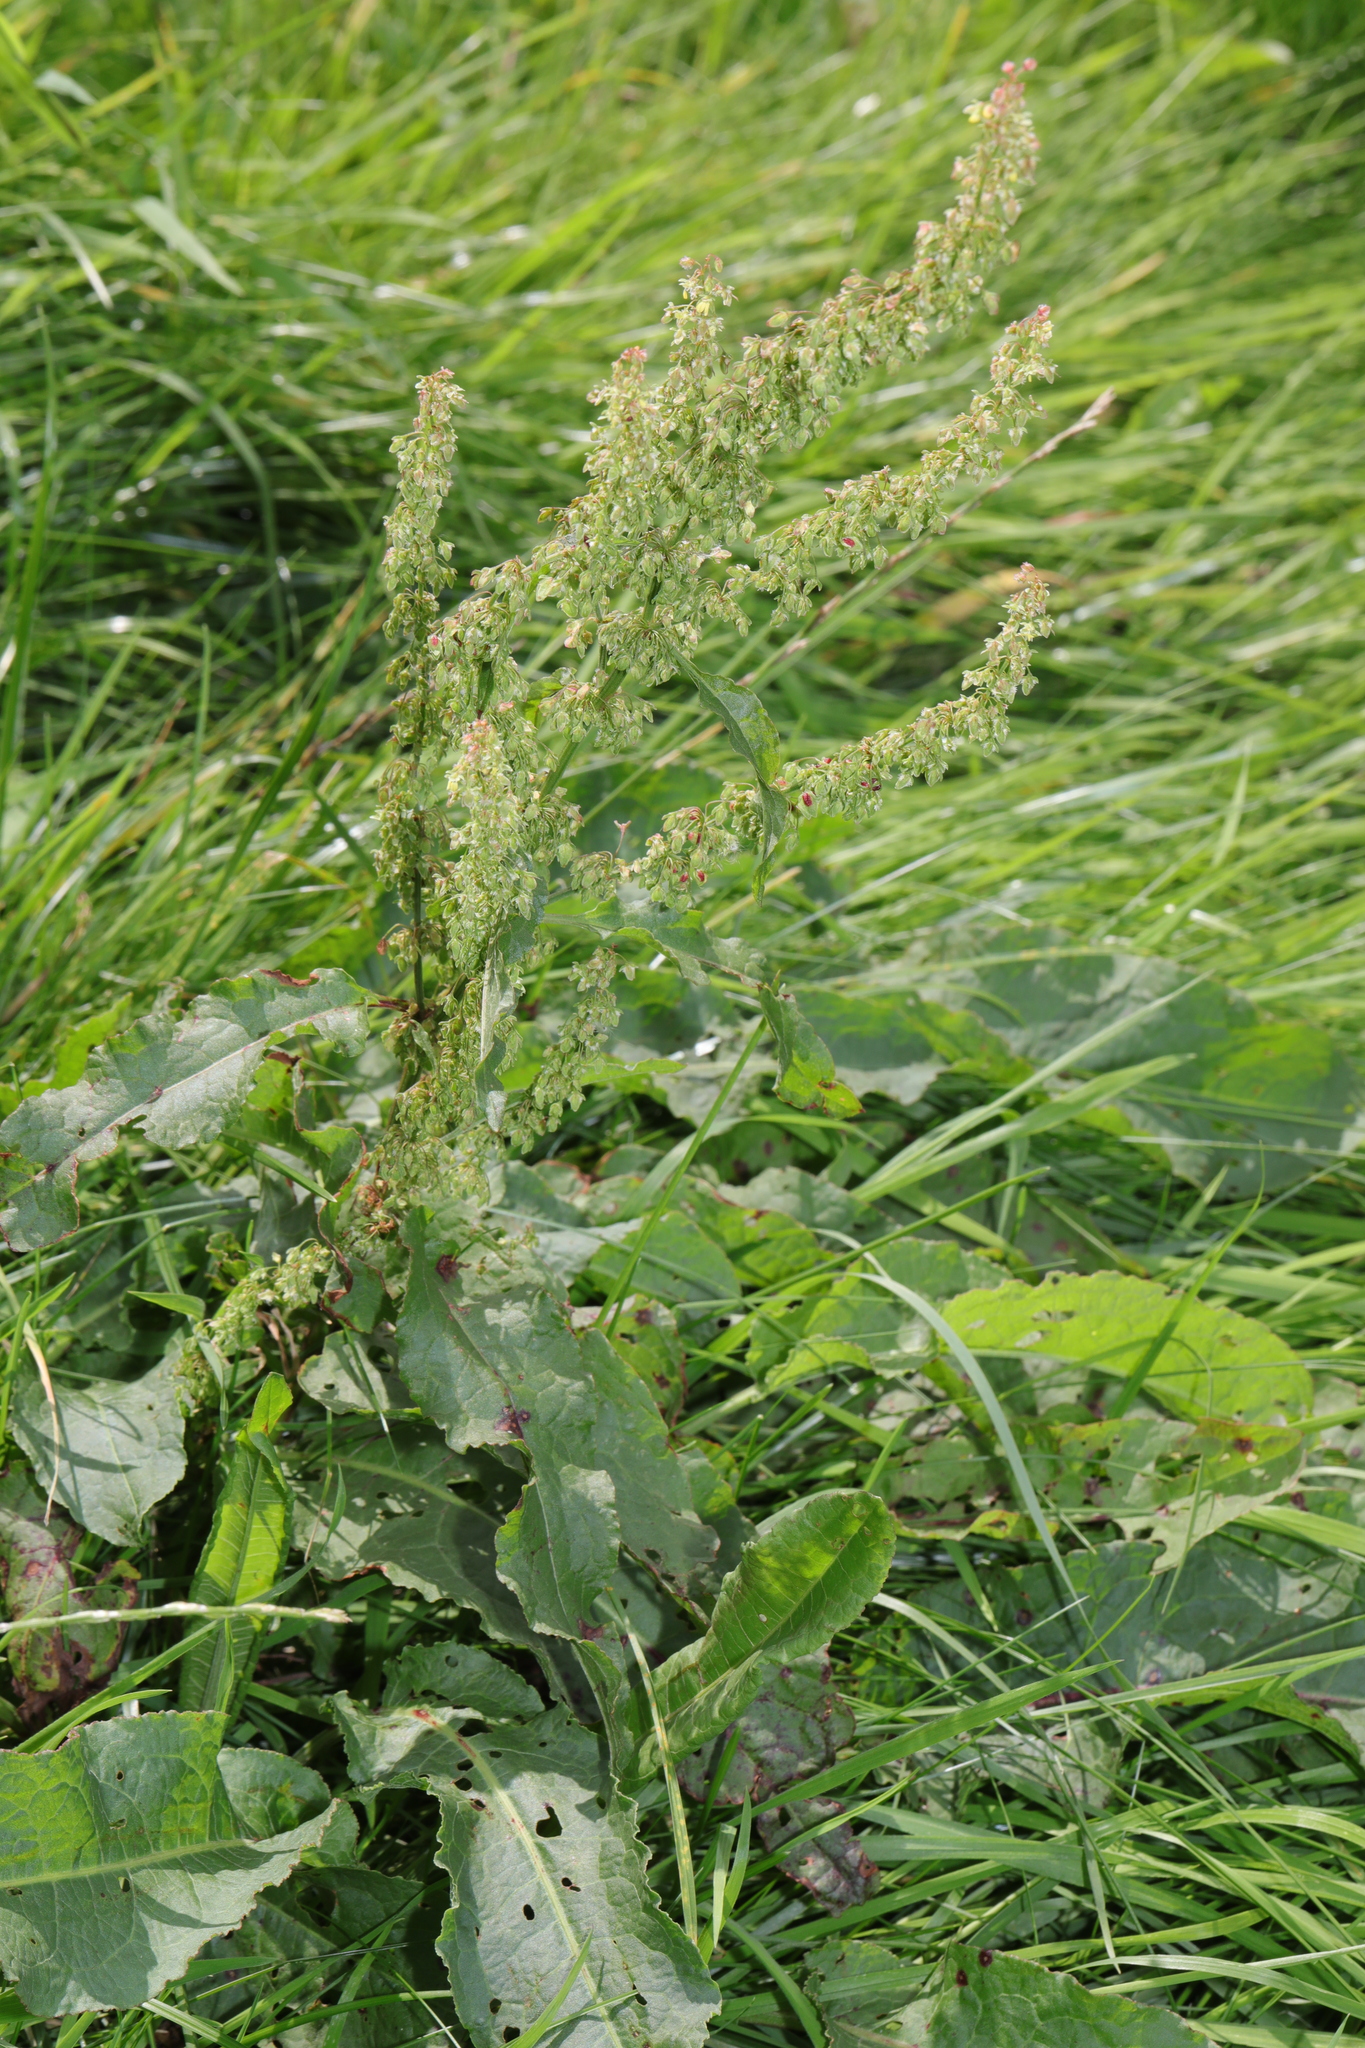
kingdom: Plantae
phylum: Tracheophyta
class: Magnoliopsida
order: Caryophyllales
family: Polygonaceae
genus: Rumex
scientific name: Rumex obtusifolius
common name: Bitter dock
